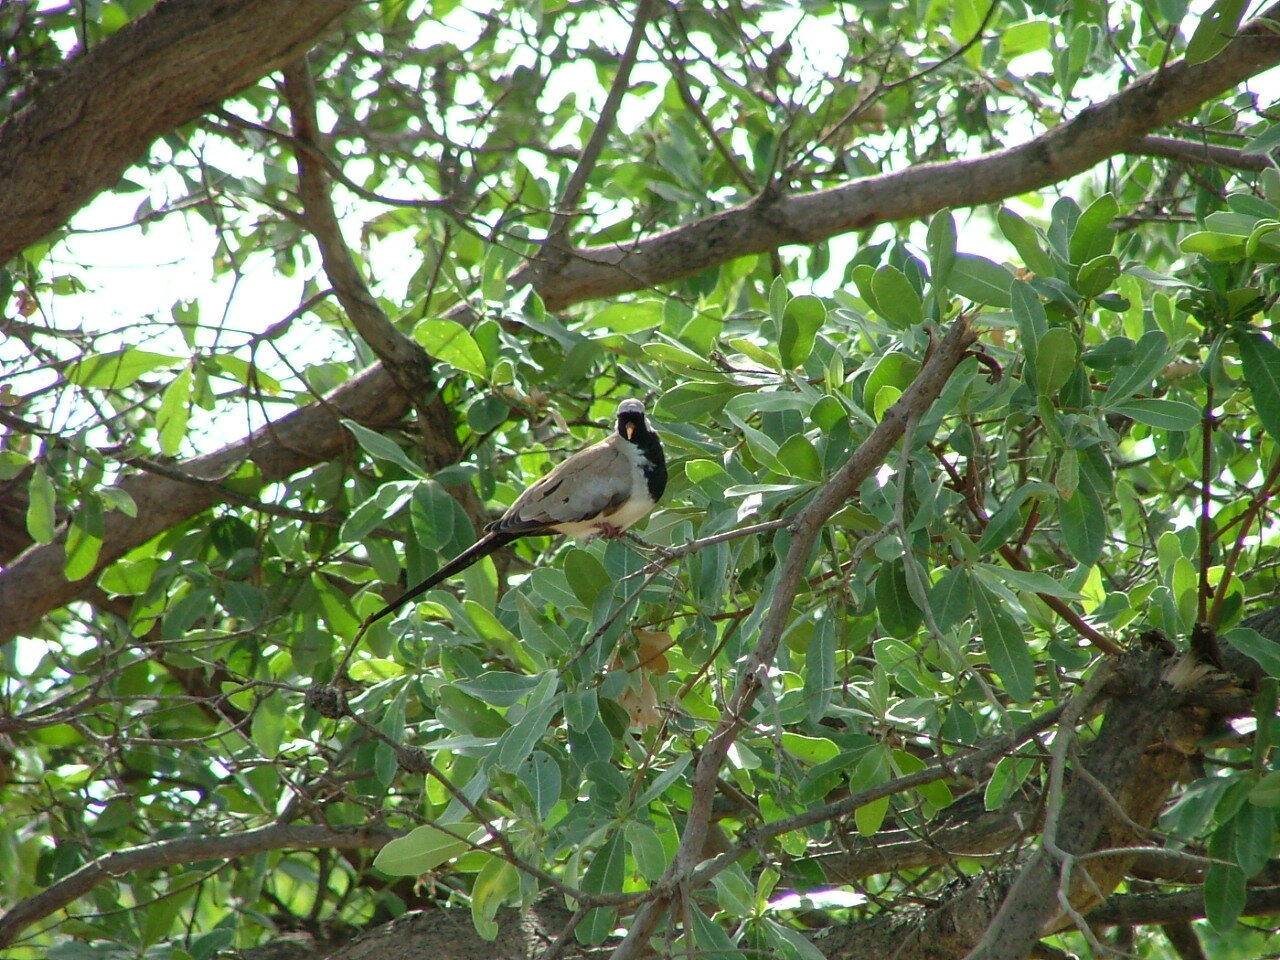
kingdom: Animalia
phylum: Chordata
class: Aves
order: Columbiformes
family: Columbidae
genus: Oena
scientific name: Oena capensis
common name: Namaqua dove
